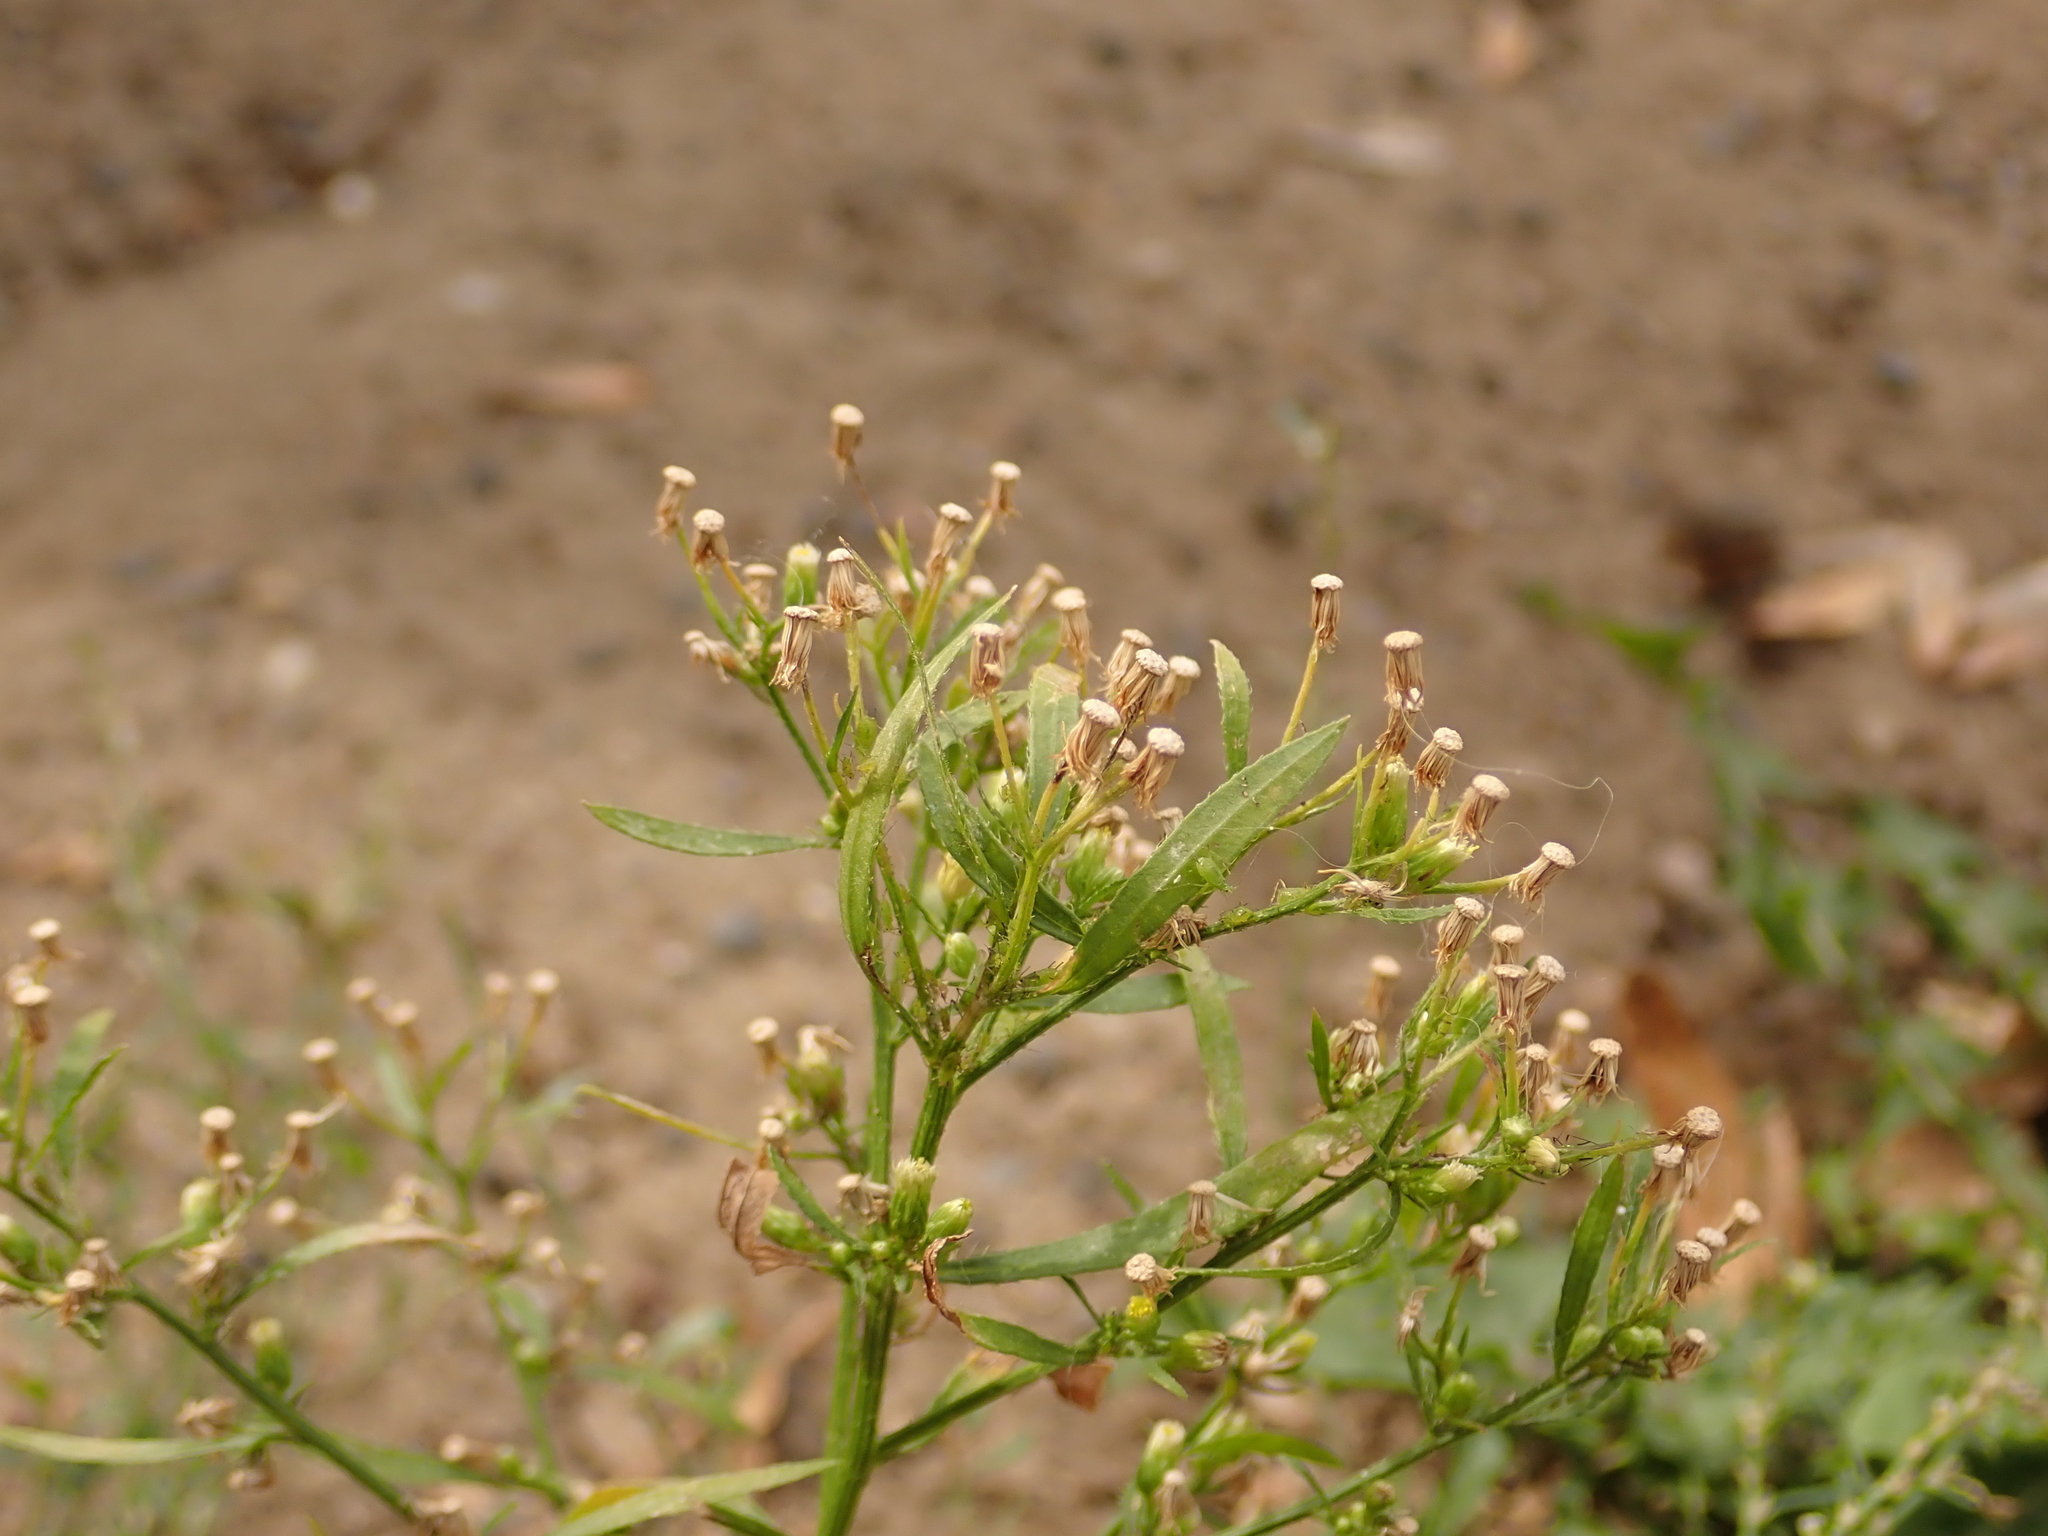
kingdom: Plantae
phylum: Tracheophyta
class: Magnoliopsida
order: Asterales
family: Asteraceae
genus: Erigeron
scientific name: Erigeron canadensis
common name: Canadian fleabane
